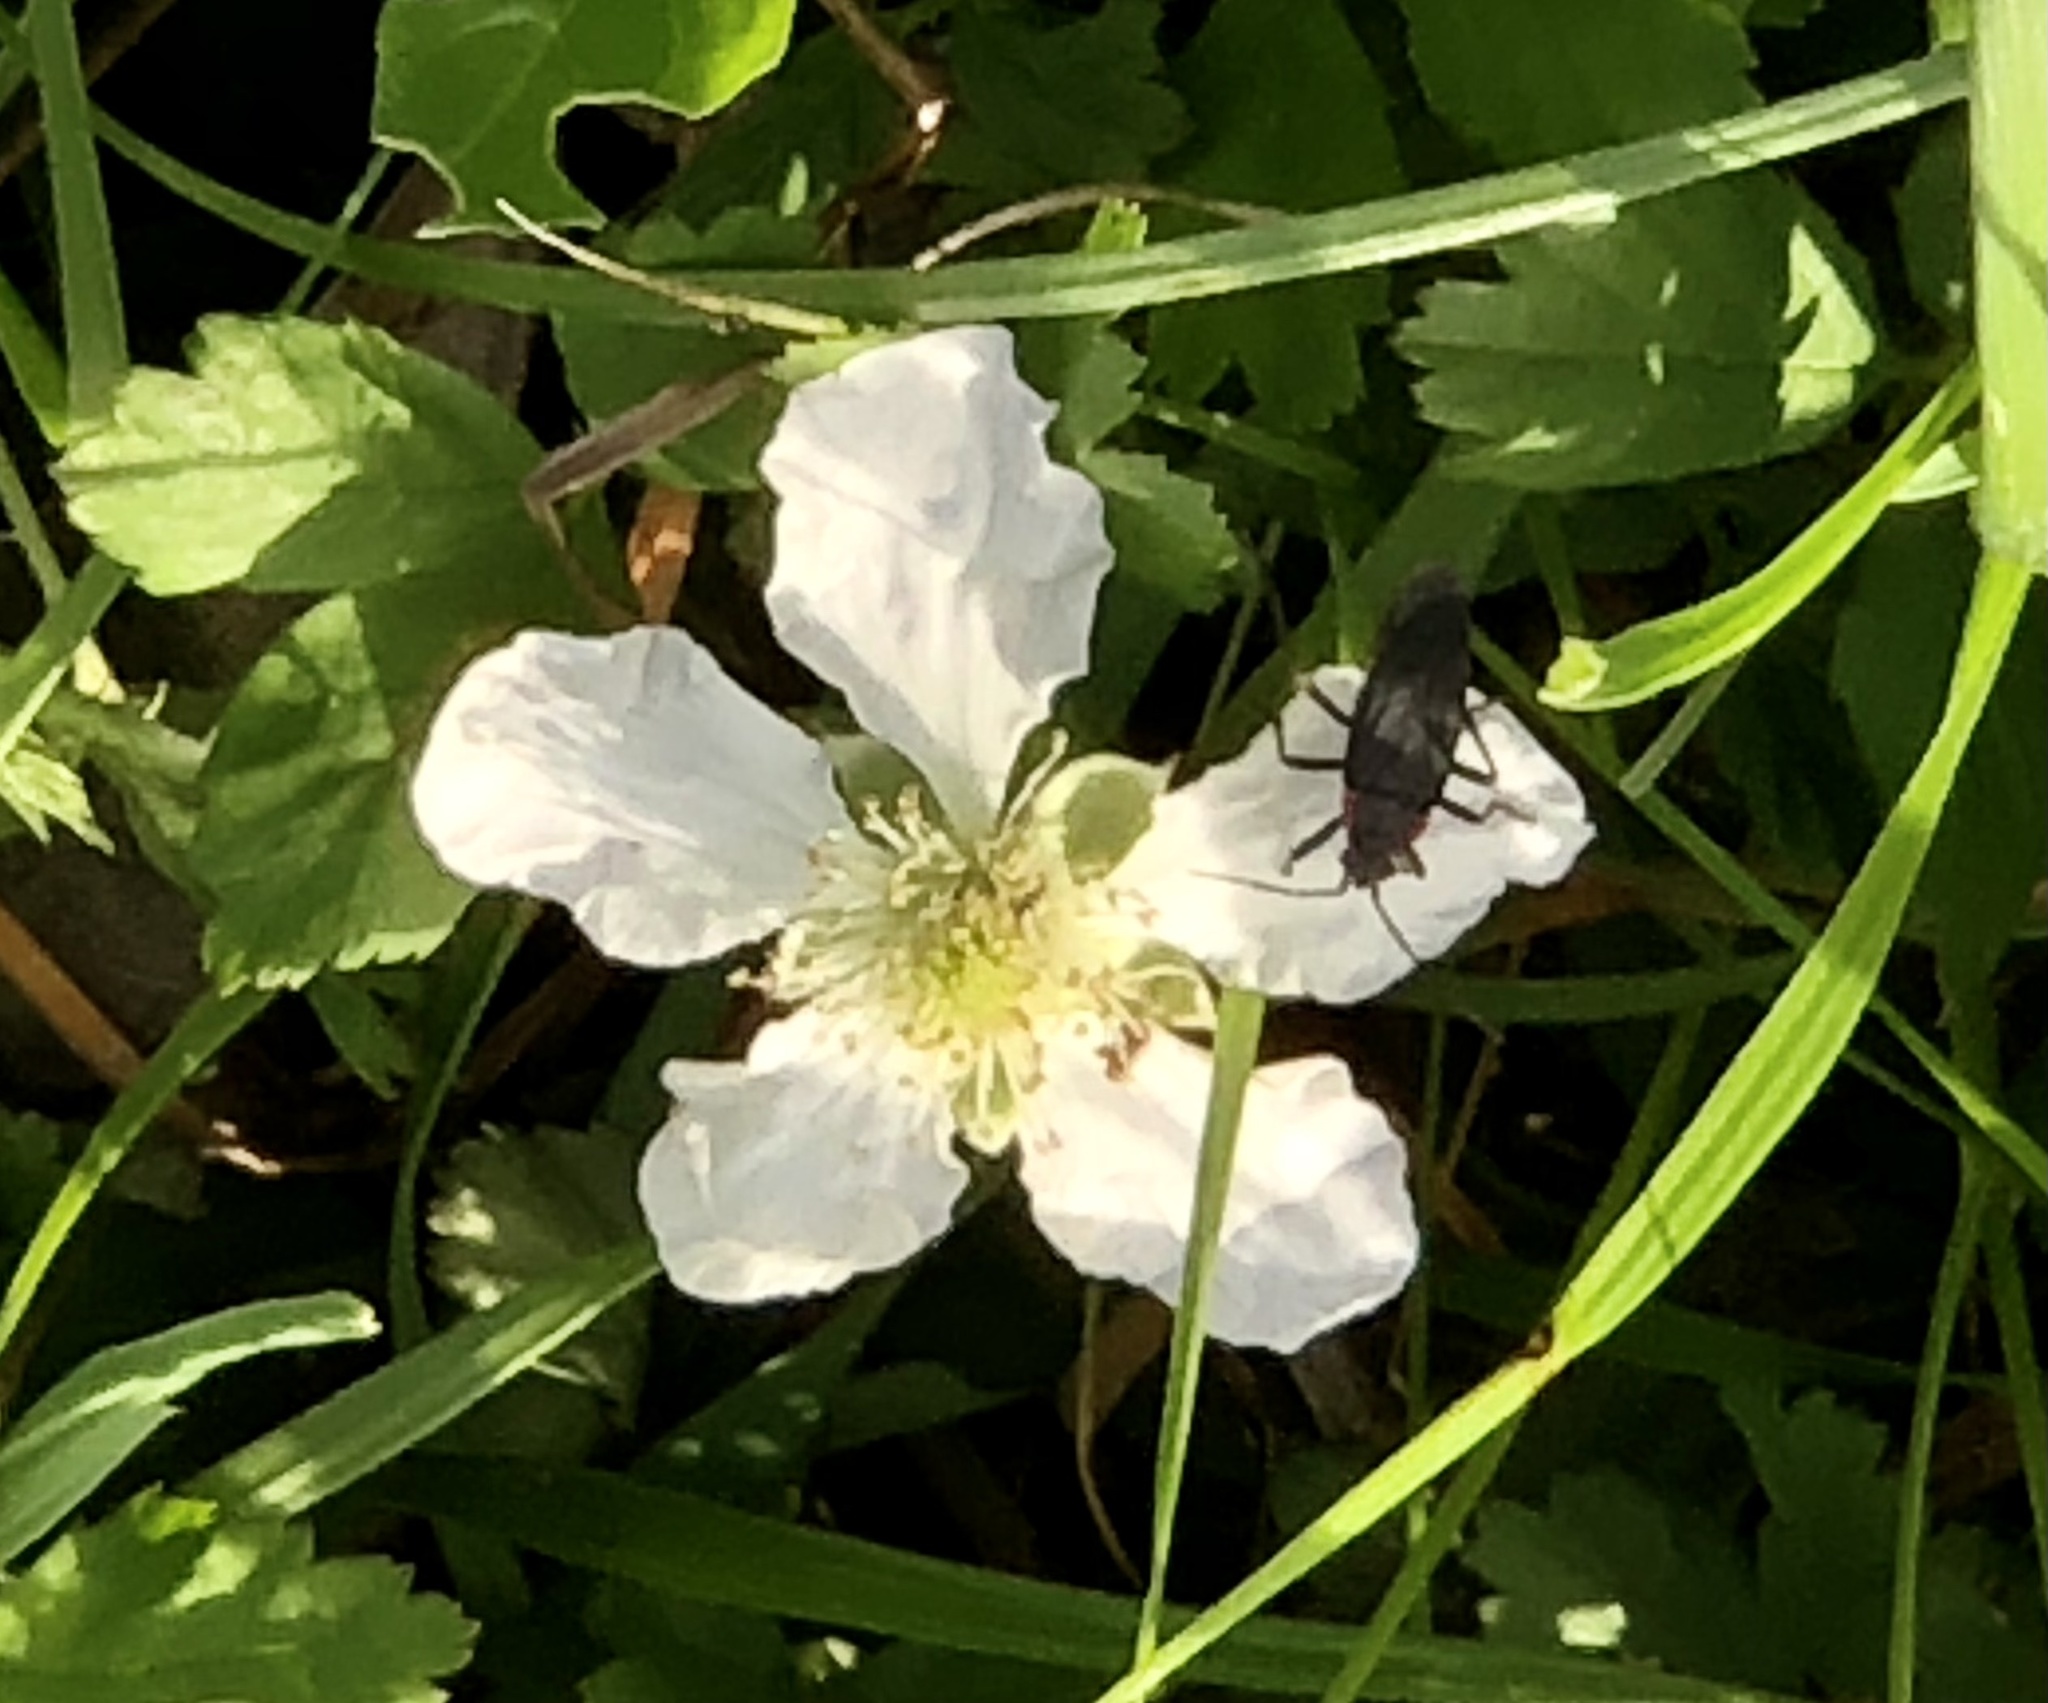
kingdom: Animalia
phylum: Arthropoda
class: Insecta
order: Hemiptera
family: Rhopalidae
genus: Jadera
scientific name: Jadera haematoloma
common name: Red-shouldered bug
